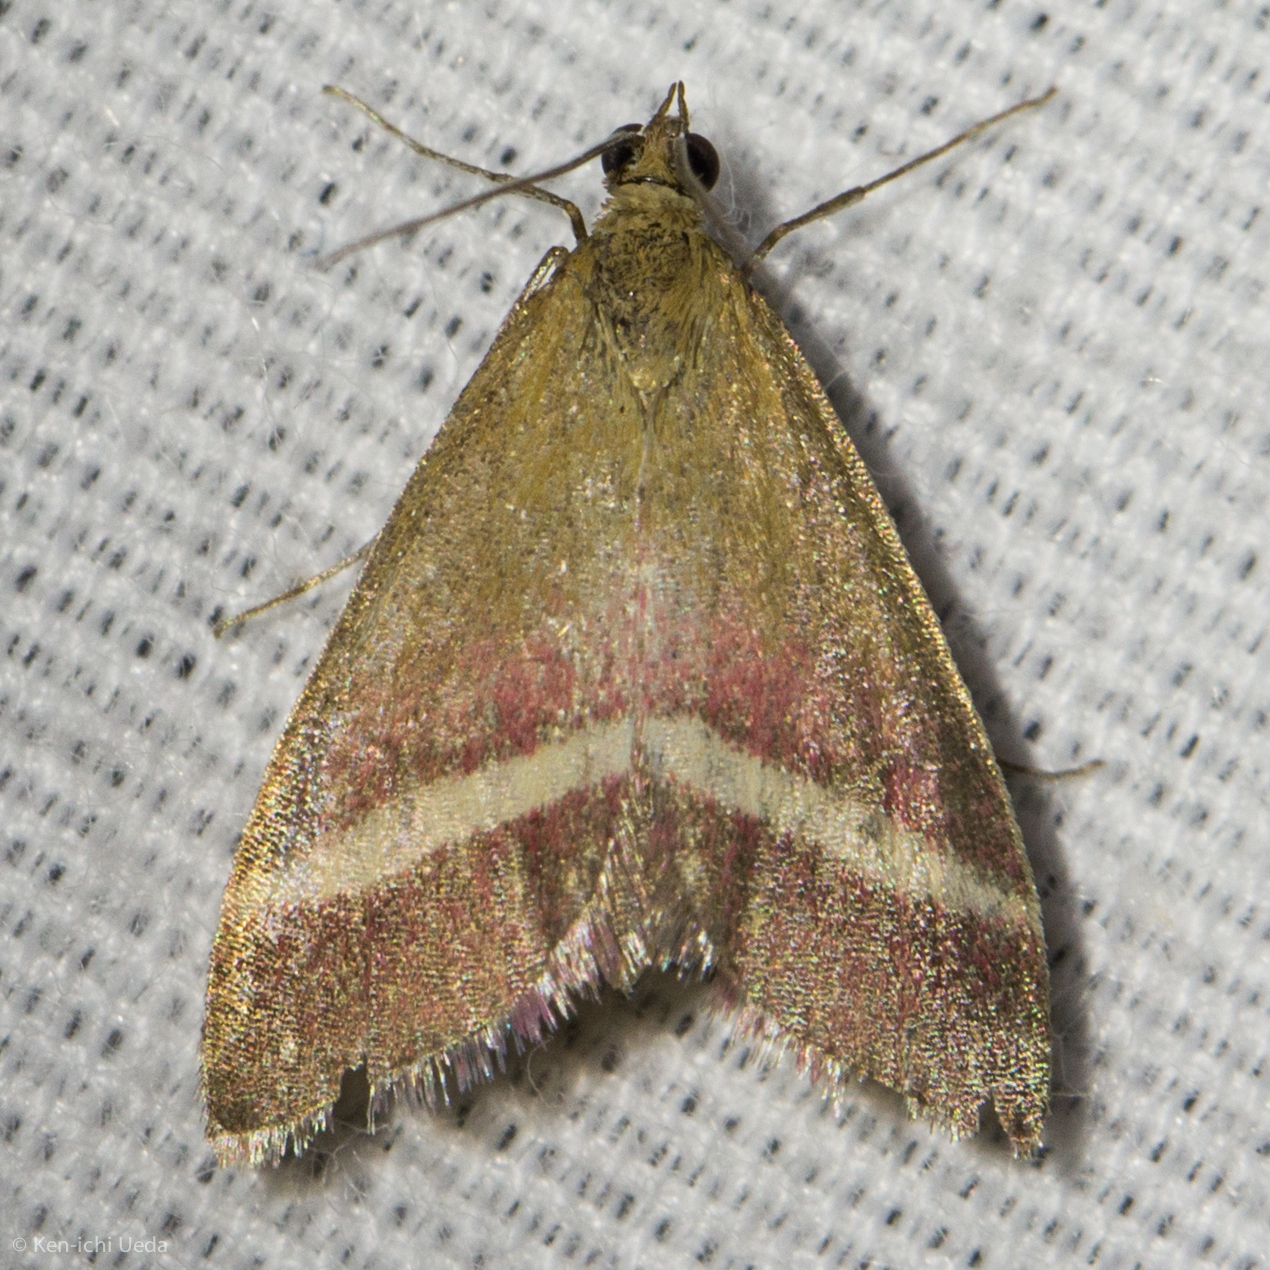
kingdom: Animalia
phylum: Arthropoda
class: Insecta
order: Lepidoptera
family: Crambidae
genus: Pyrausta
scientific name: Pyrausta corinthalis
